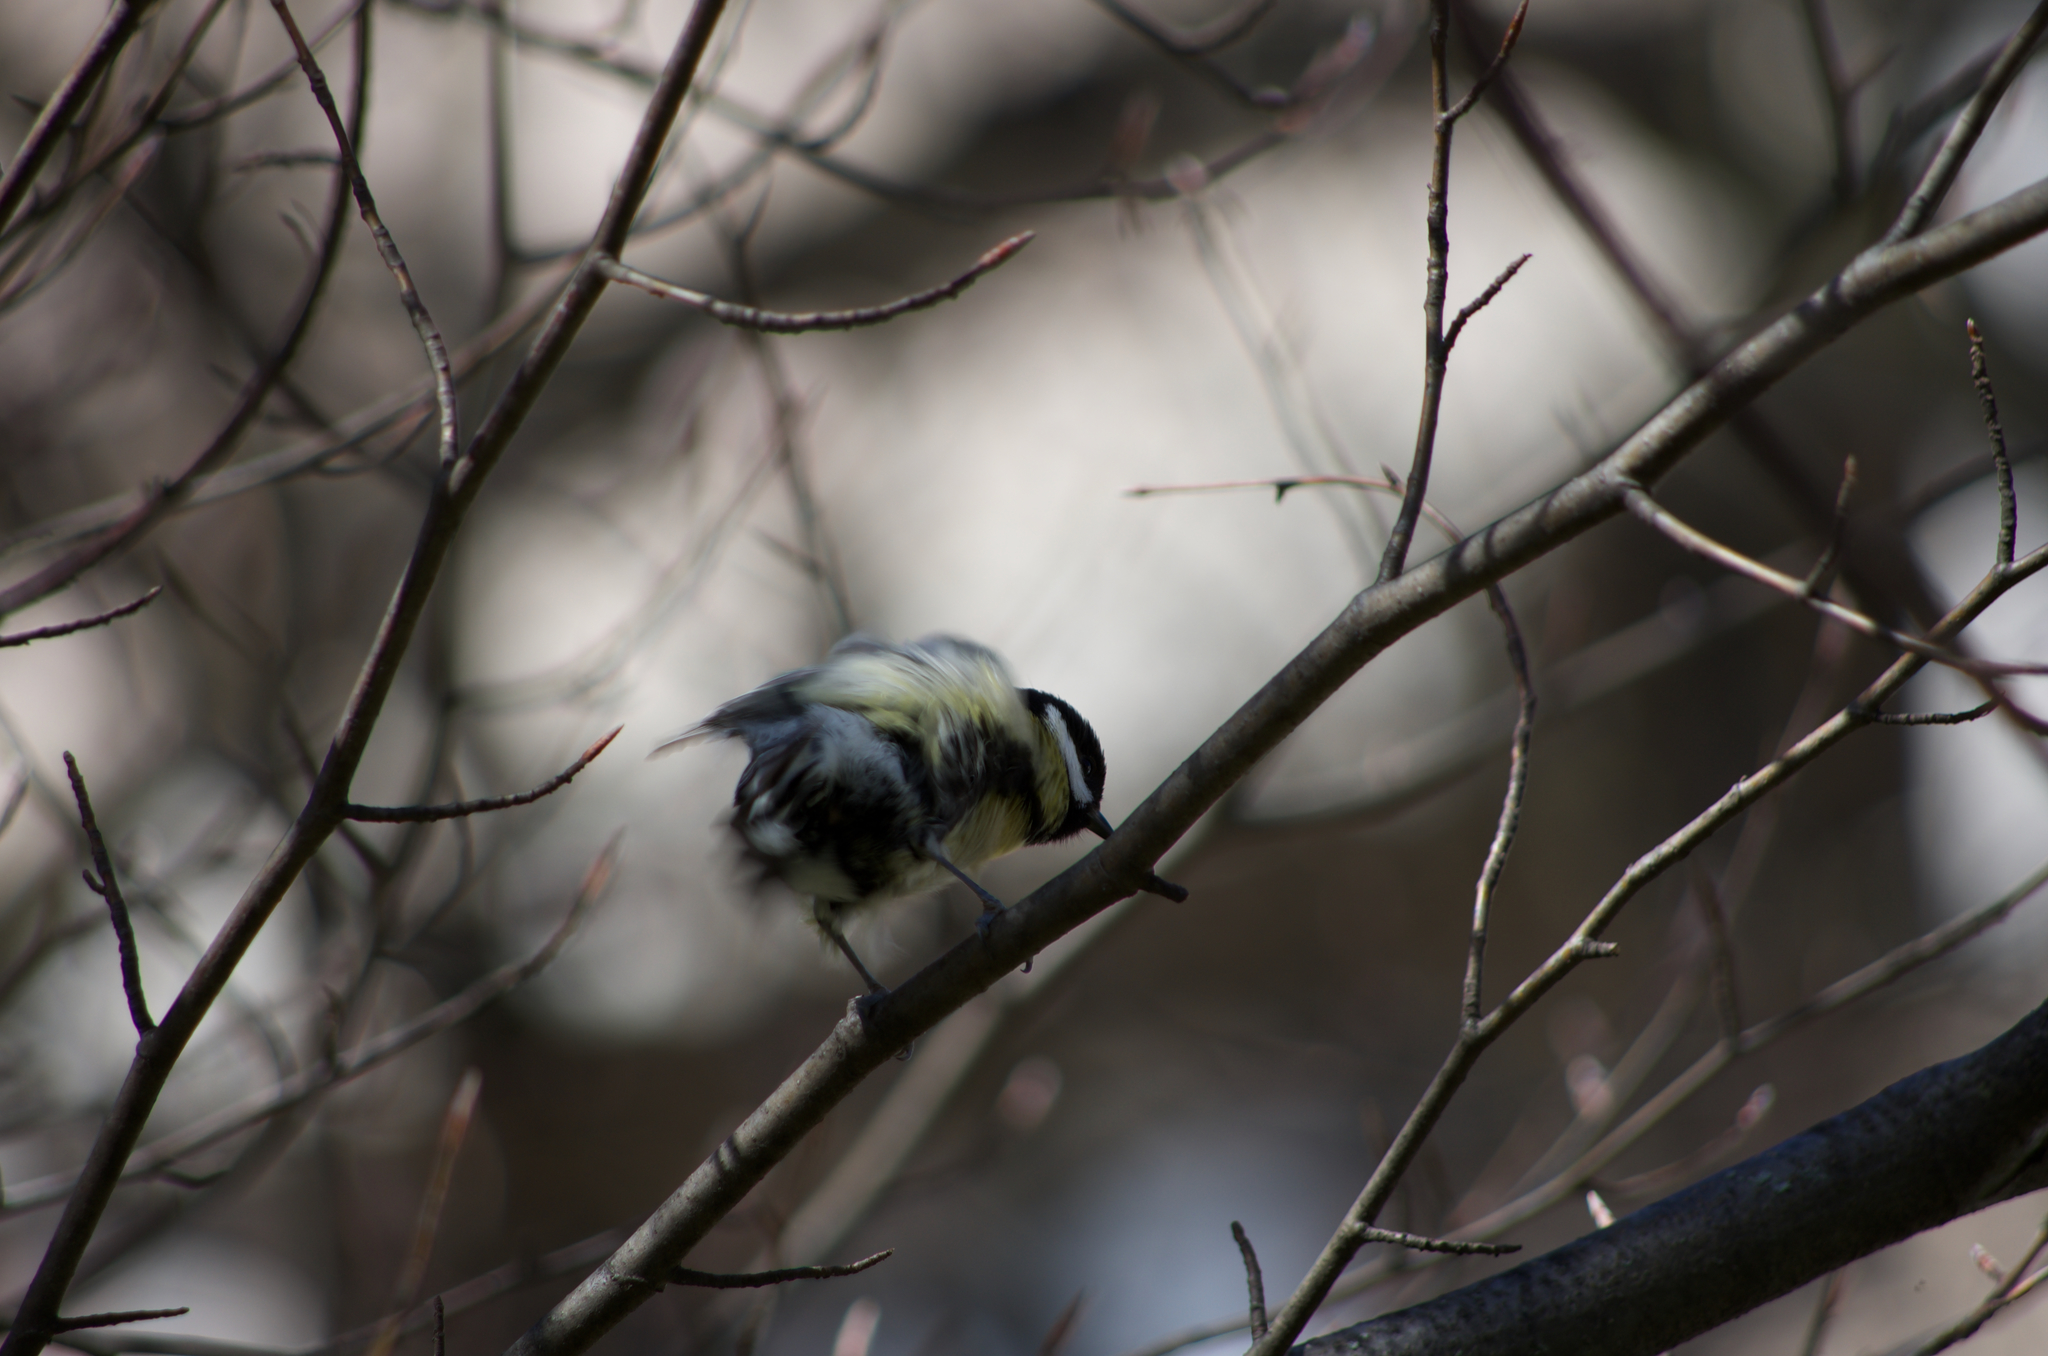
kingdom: Animalia
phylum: Chordata
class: Aves
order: Passeriformes
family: Paridae
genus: Parus
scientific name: Parus major
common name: Great tit
